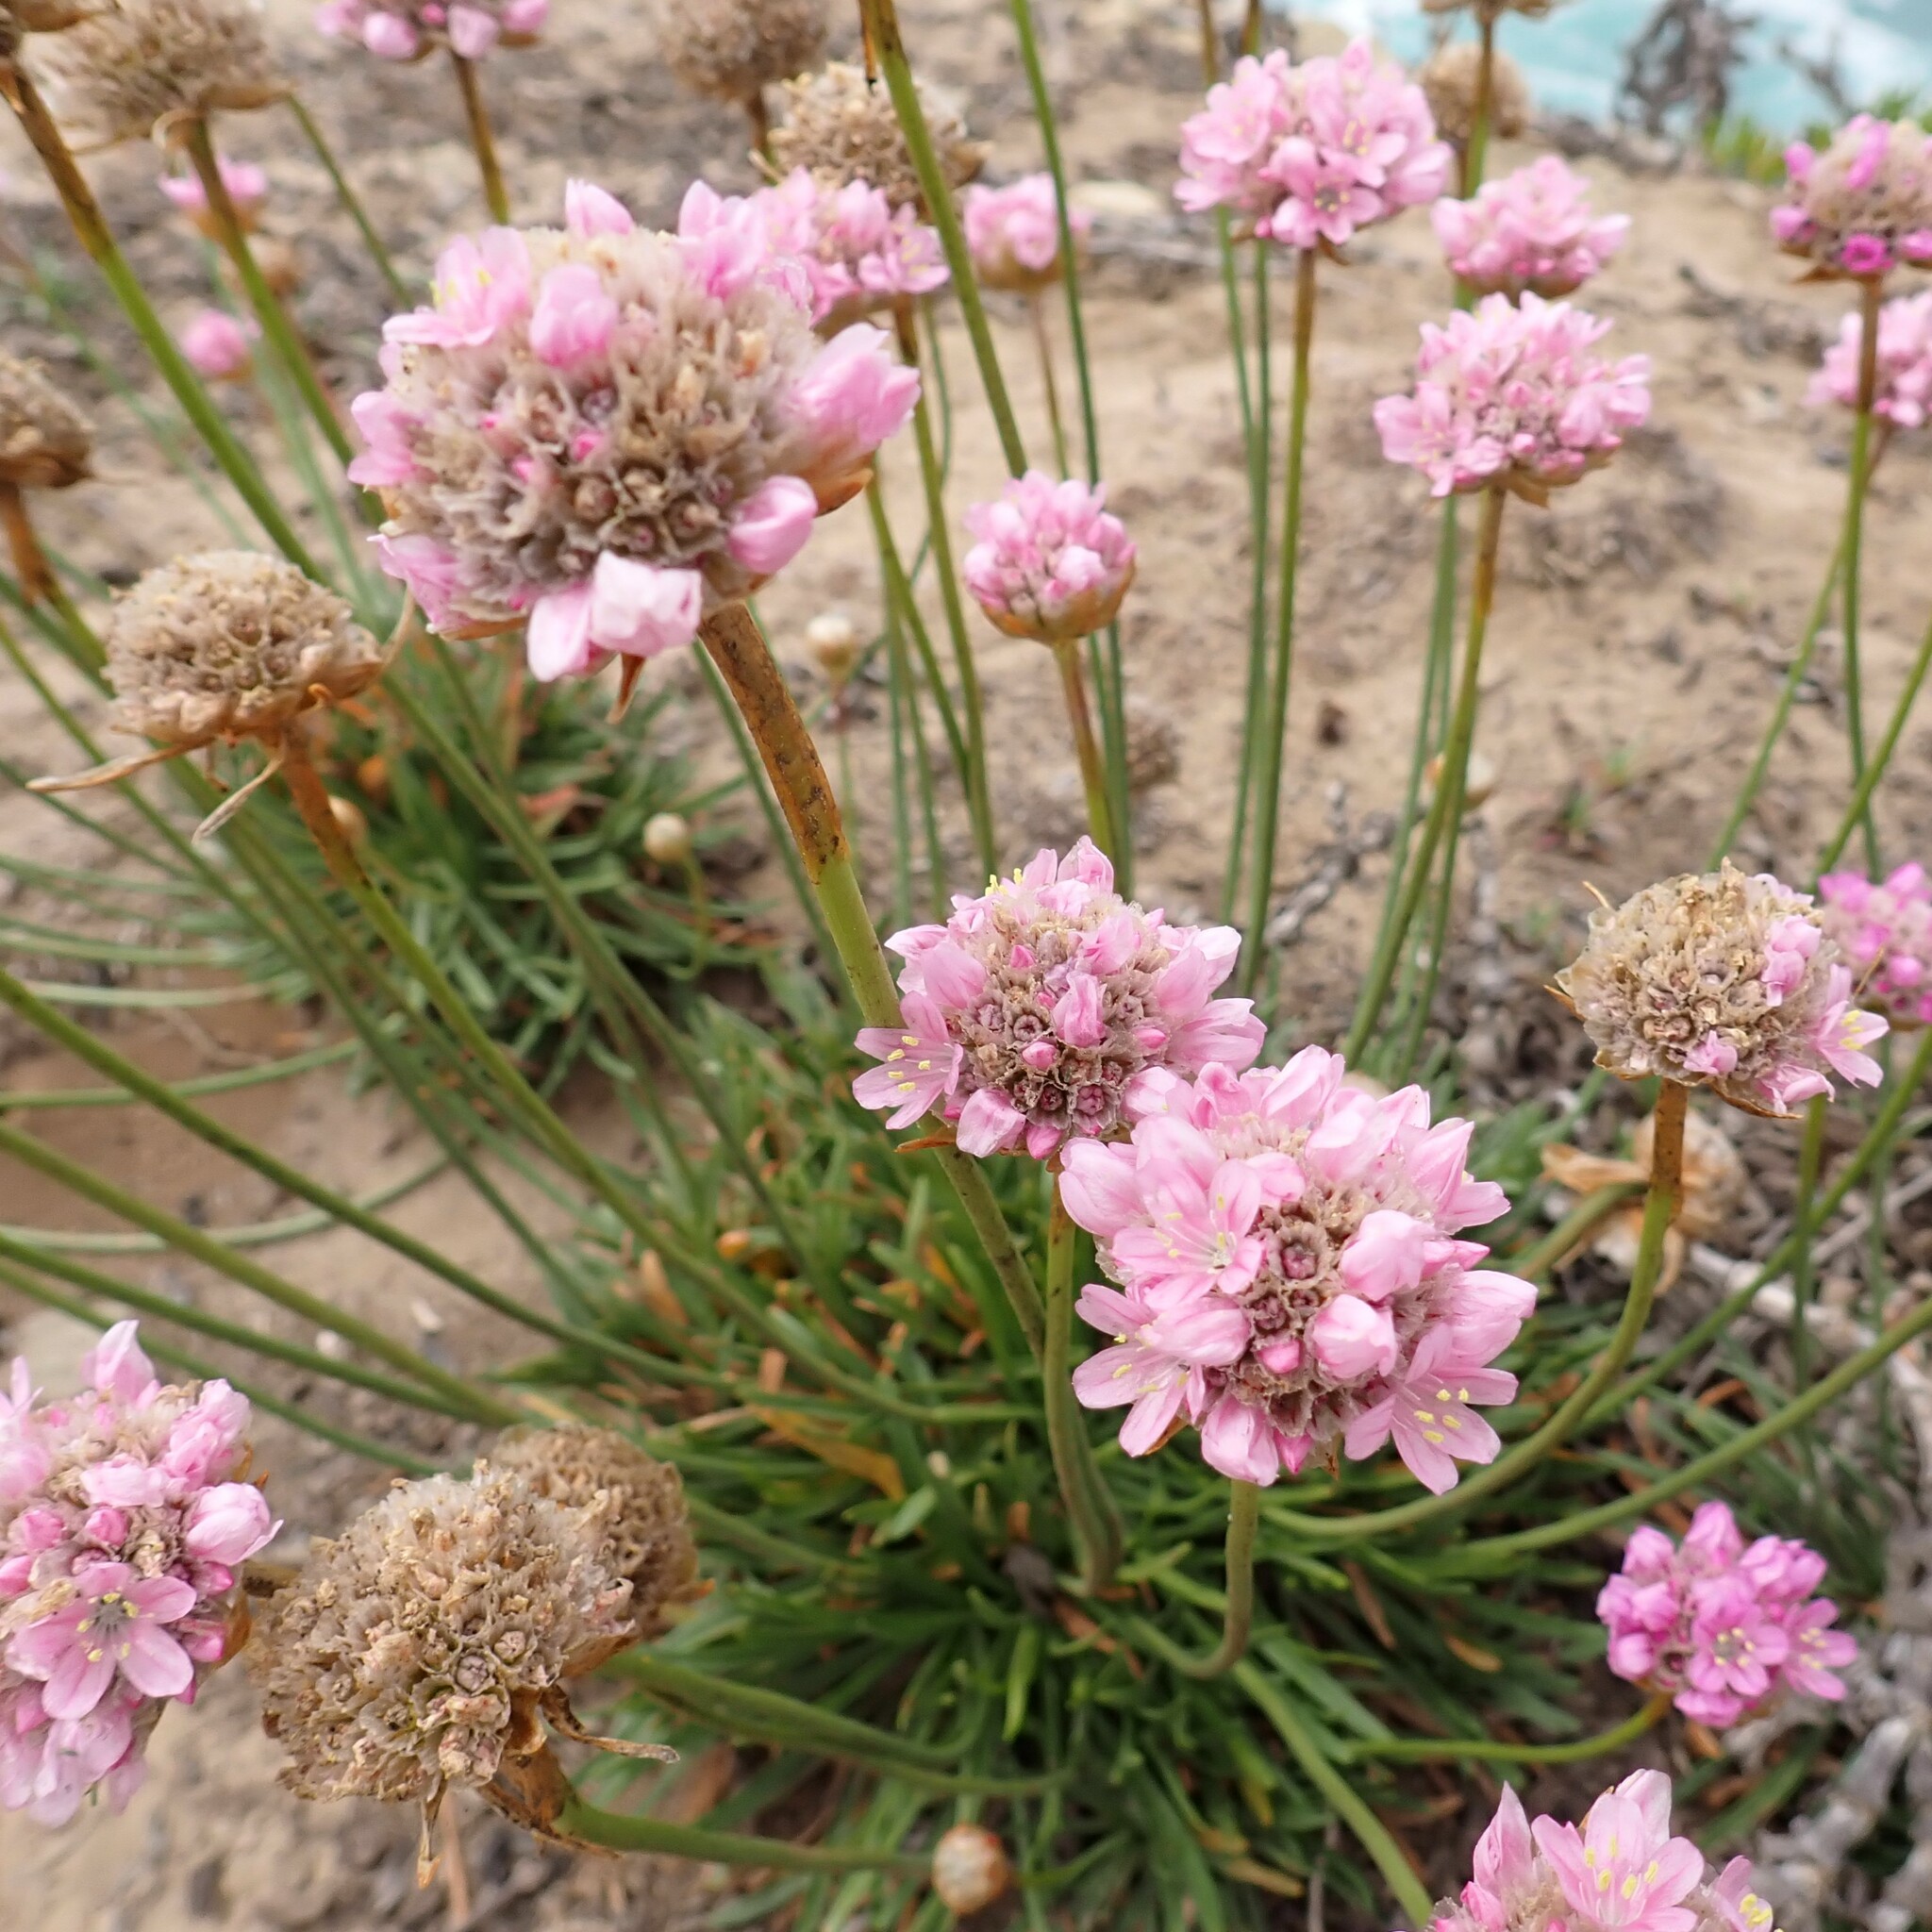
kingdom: Plantae
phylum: Tracheophyta
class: Magnoliopsida
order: Caryophyllales
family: Plumbaginaceae
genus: Armeria
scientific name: Armeria maritima
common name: Thrift
